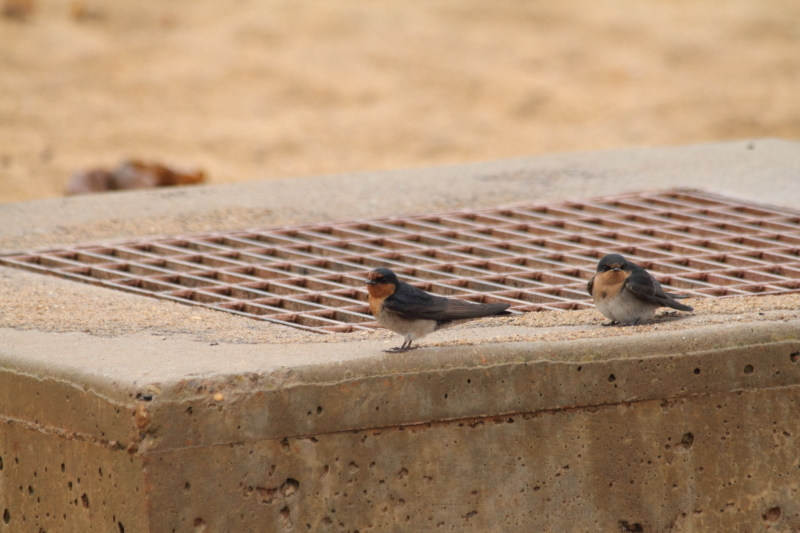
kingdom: Animalia
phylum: Chordata
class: Aves
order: Passeriformes
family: Hirundinidae
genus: Hirundo
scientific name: Hirundo neoxena
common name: Welcome swallow
